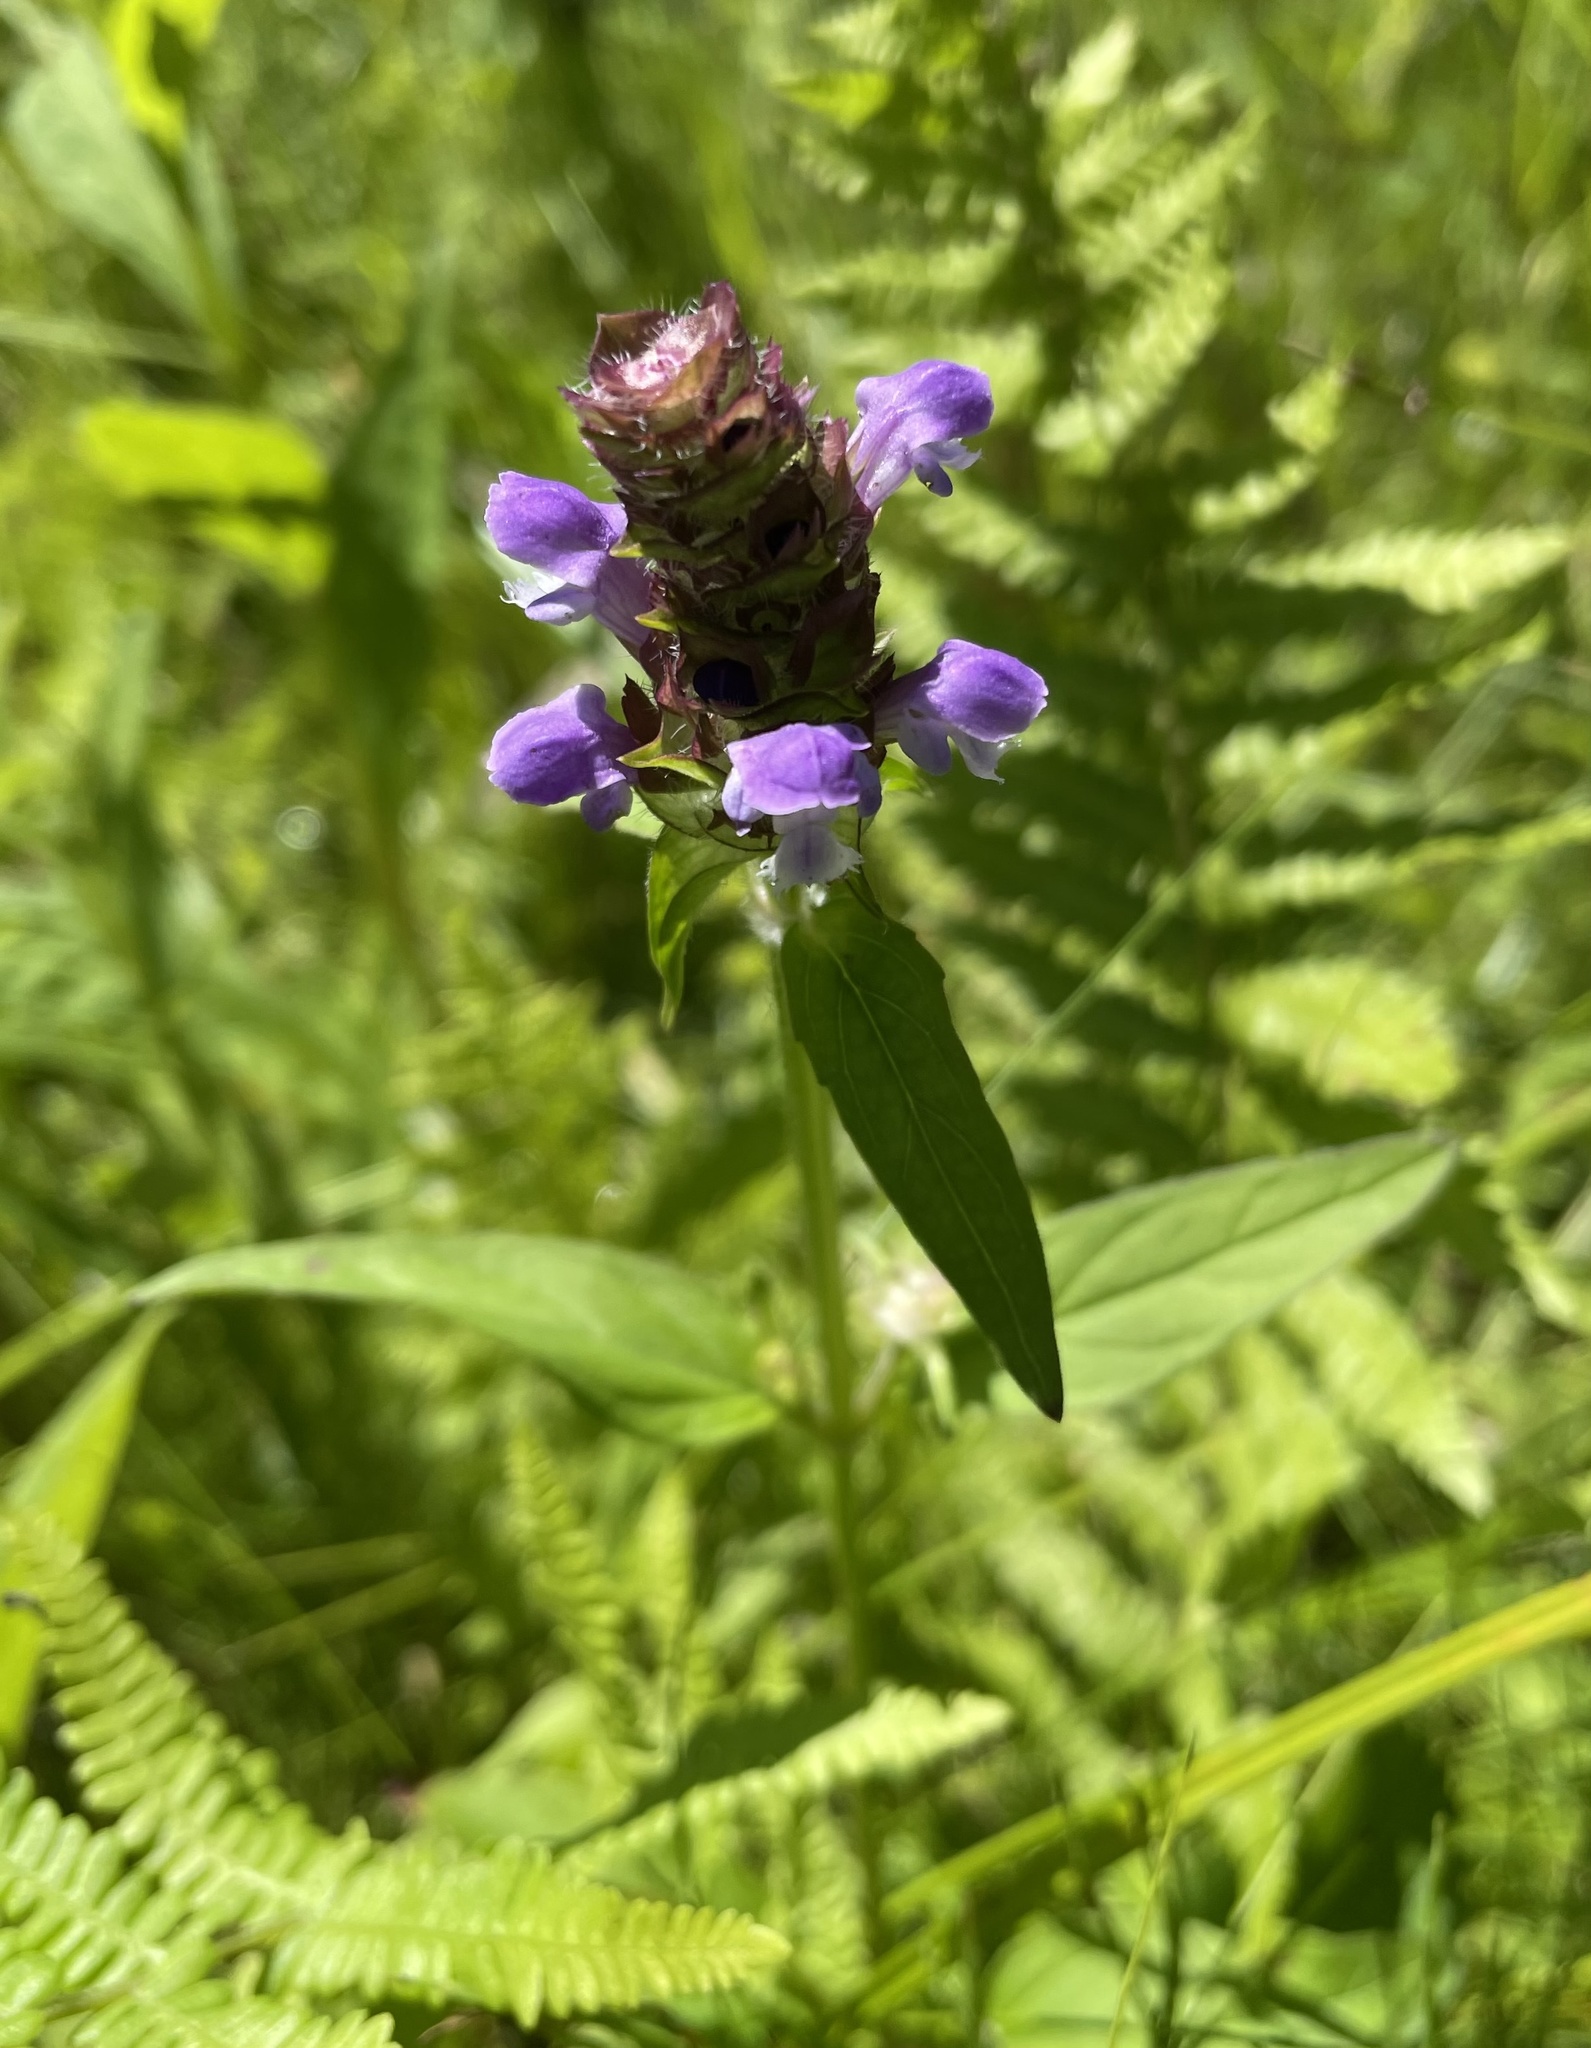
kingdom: Plantae
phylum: Tracheophyta
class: Magnoliopsida
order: Lamiales
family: Lamiaceae
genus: Prunella
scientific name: Prunella vulgaris
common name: Heal-all
